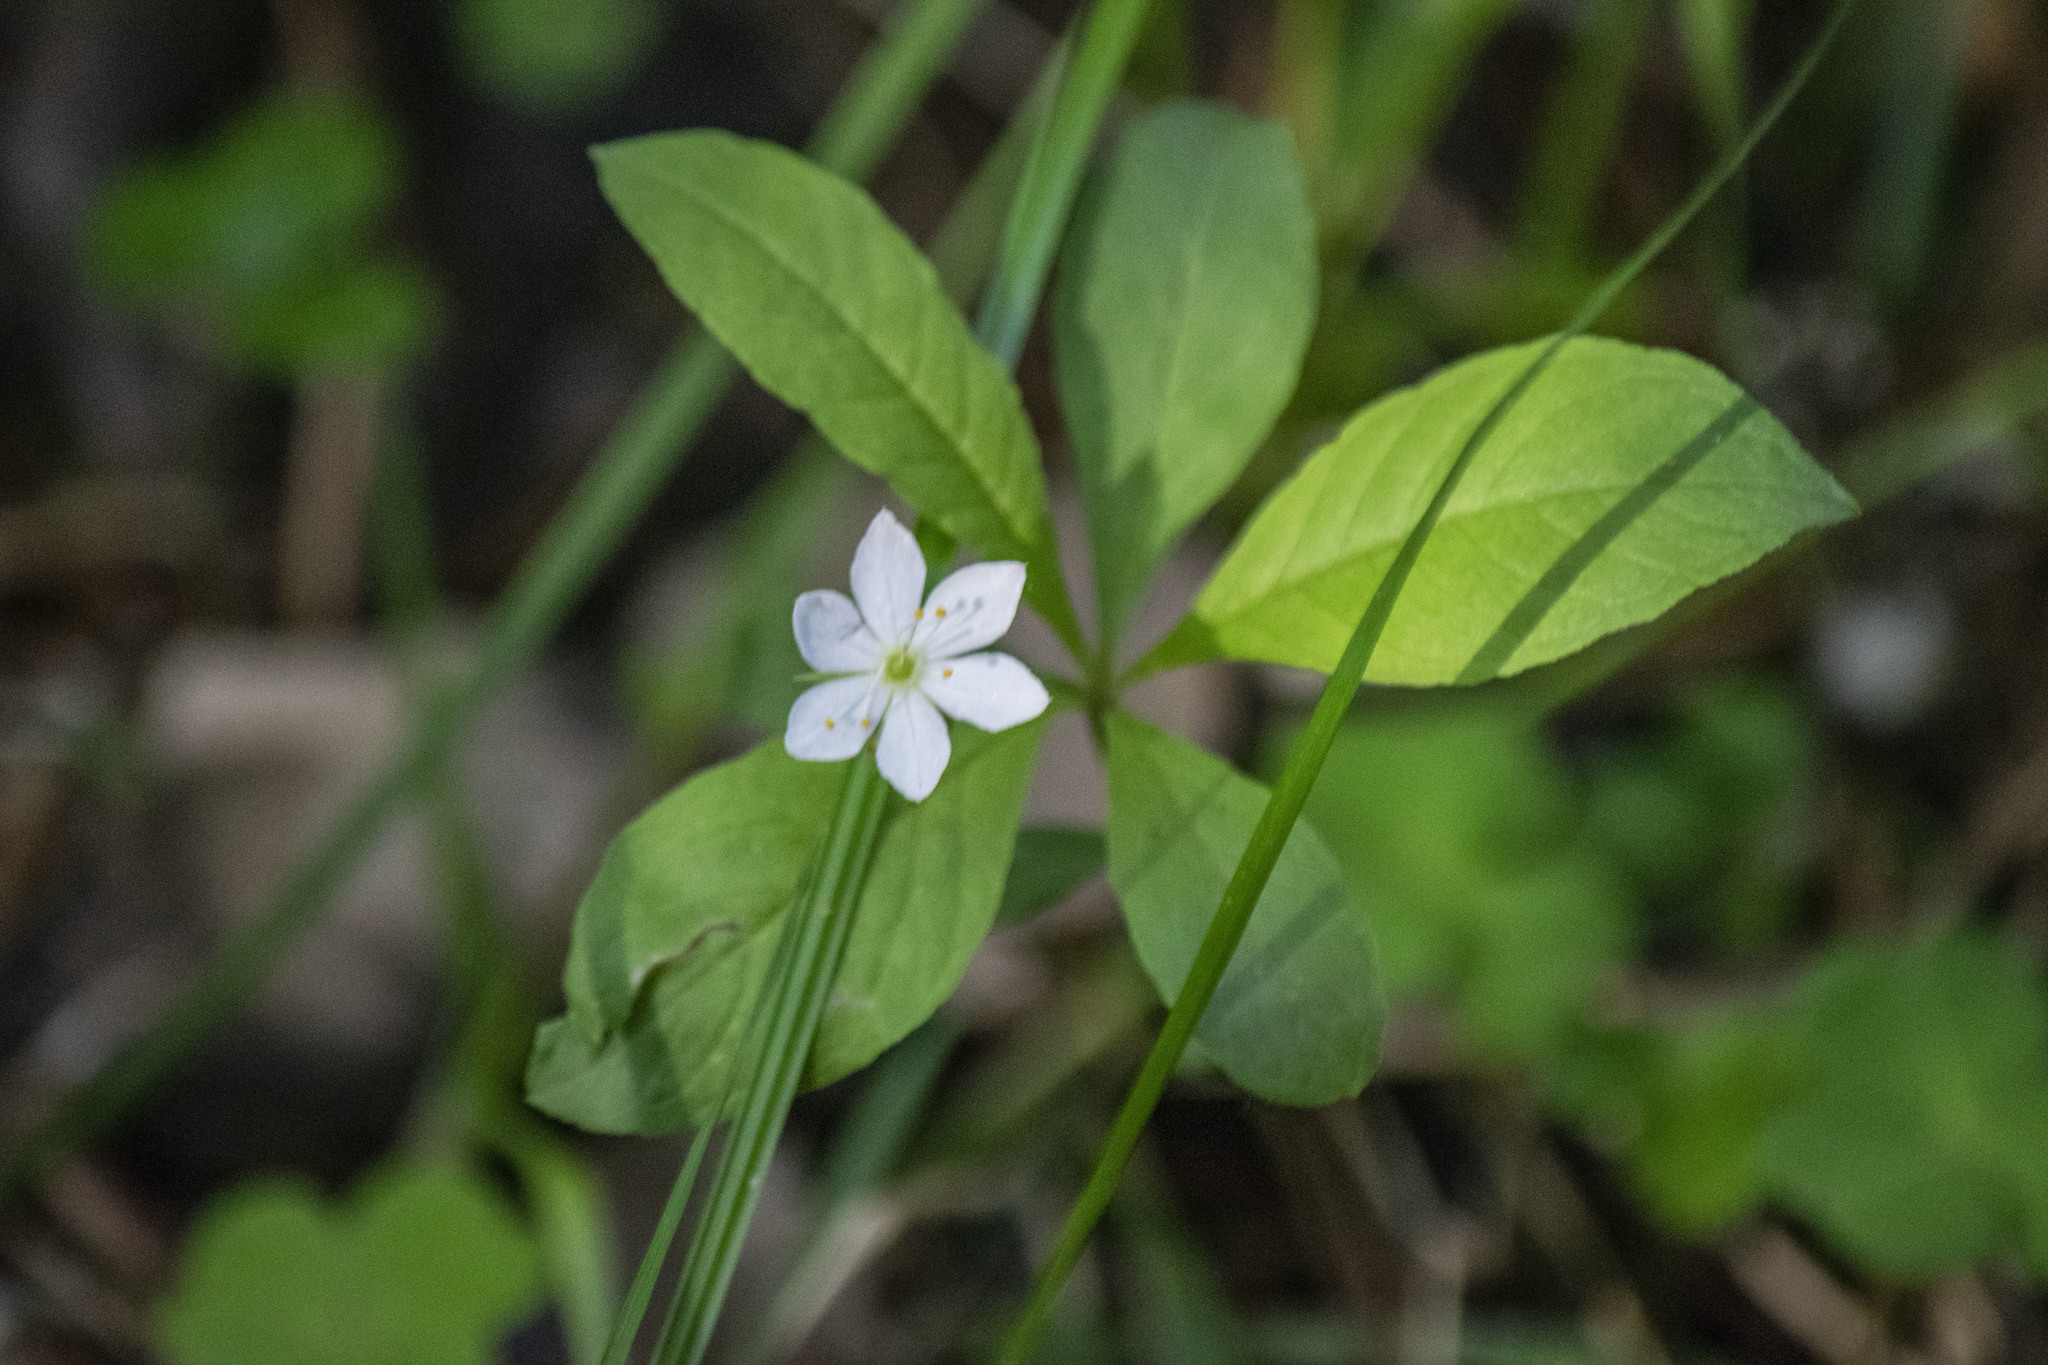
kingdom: Plantae
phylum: Tracheophyta
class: Magnoliopsida
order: Ericales
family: Primulaceae
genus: Lysimachia
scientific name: Lysimachia europaea
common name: Arctic starflower
